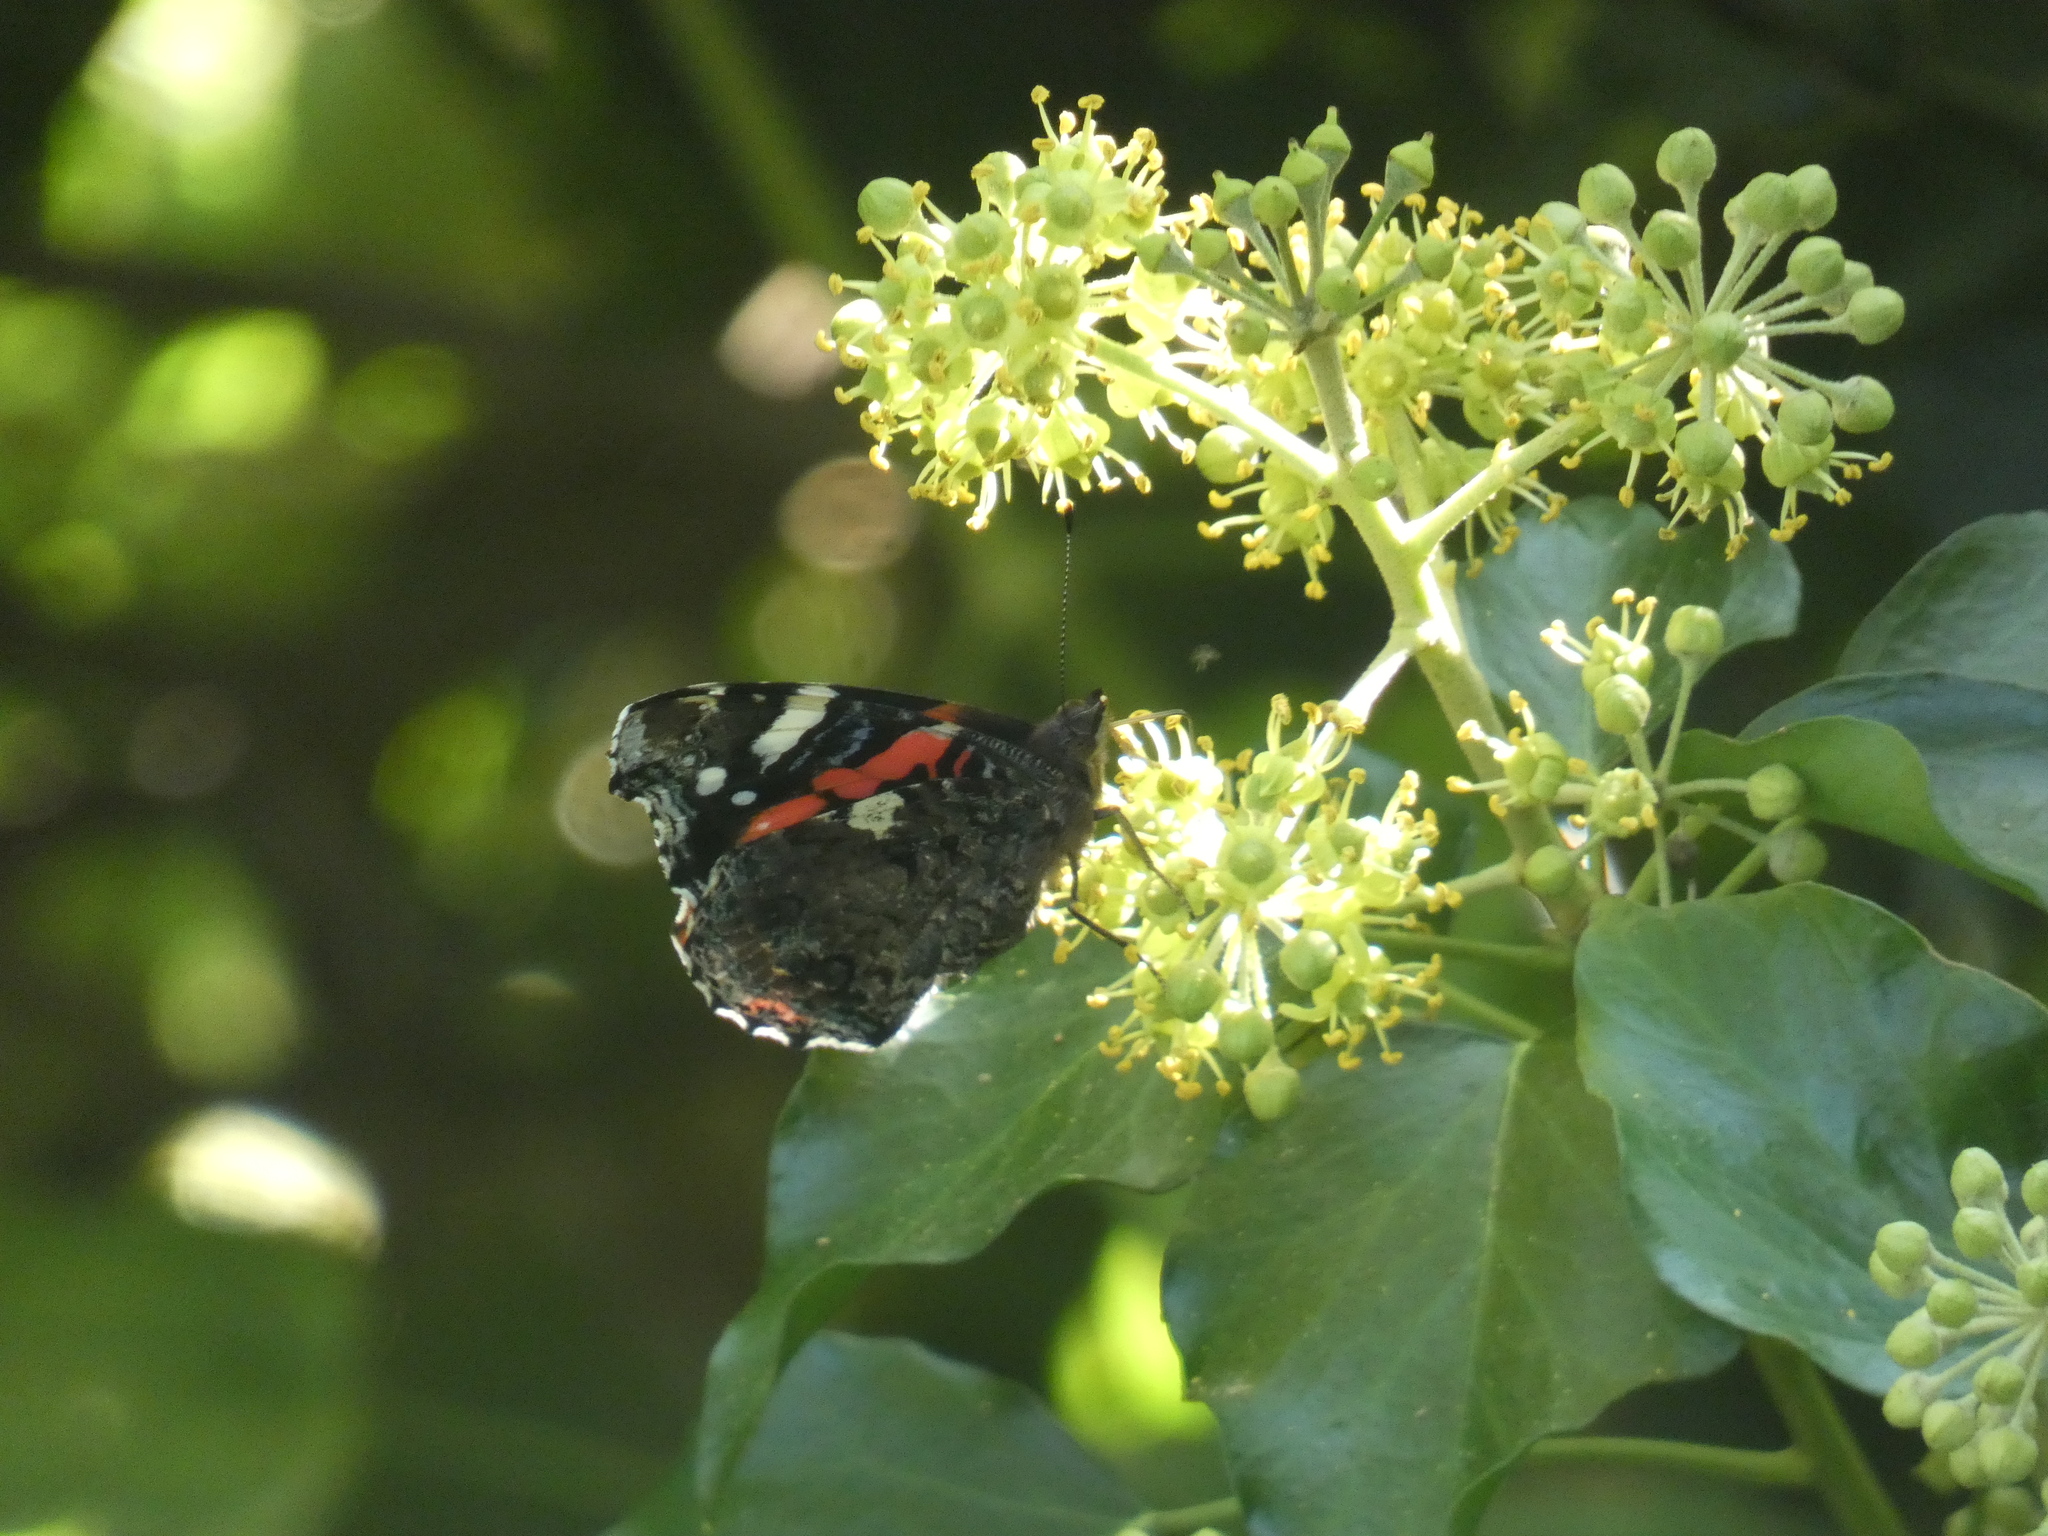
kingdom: Animalia
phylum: Arthropoda
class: Insecta
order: Lepidoptera
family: Nymphalidae
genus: Vanessa
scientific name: Vanessa atalanta
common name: Red admiral
